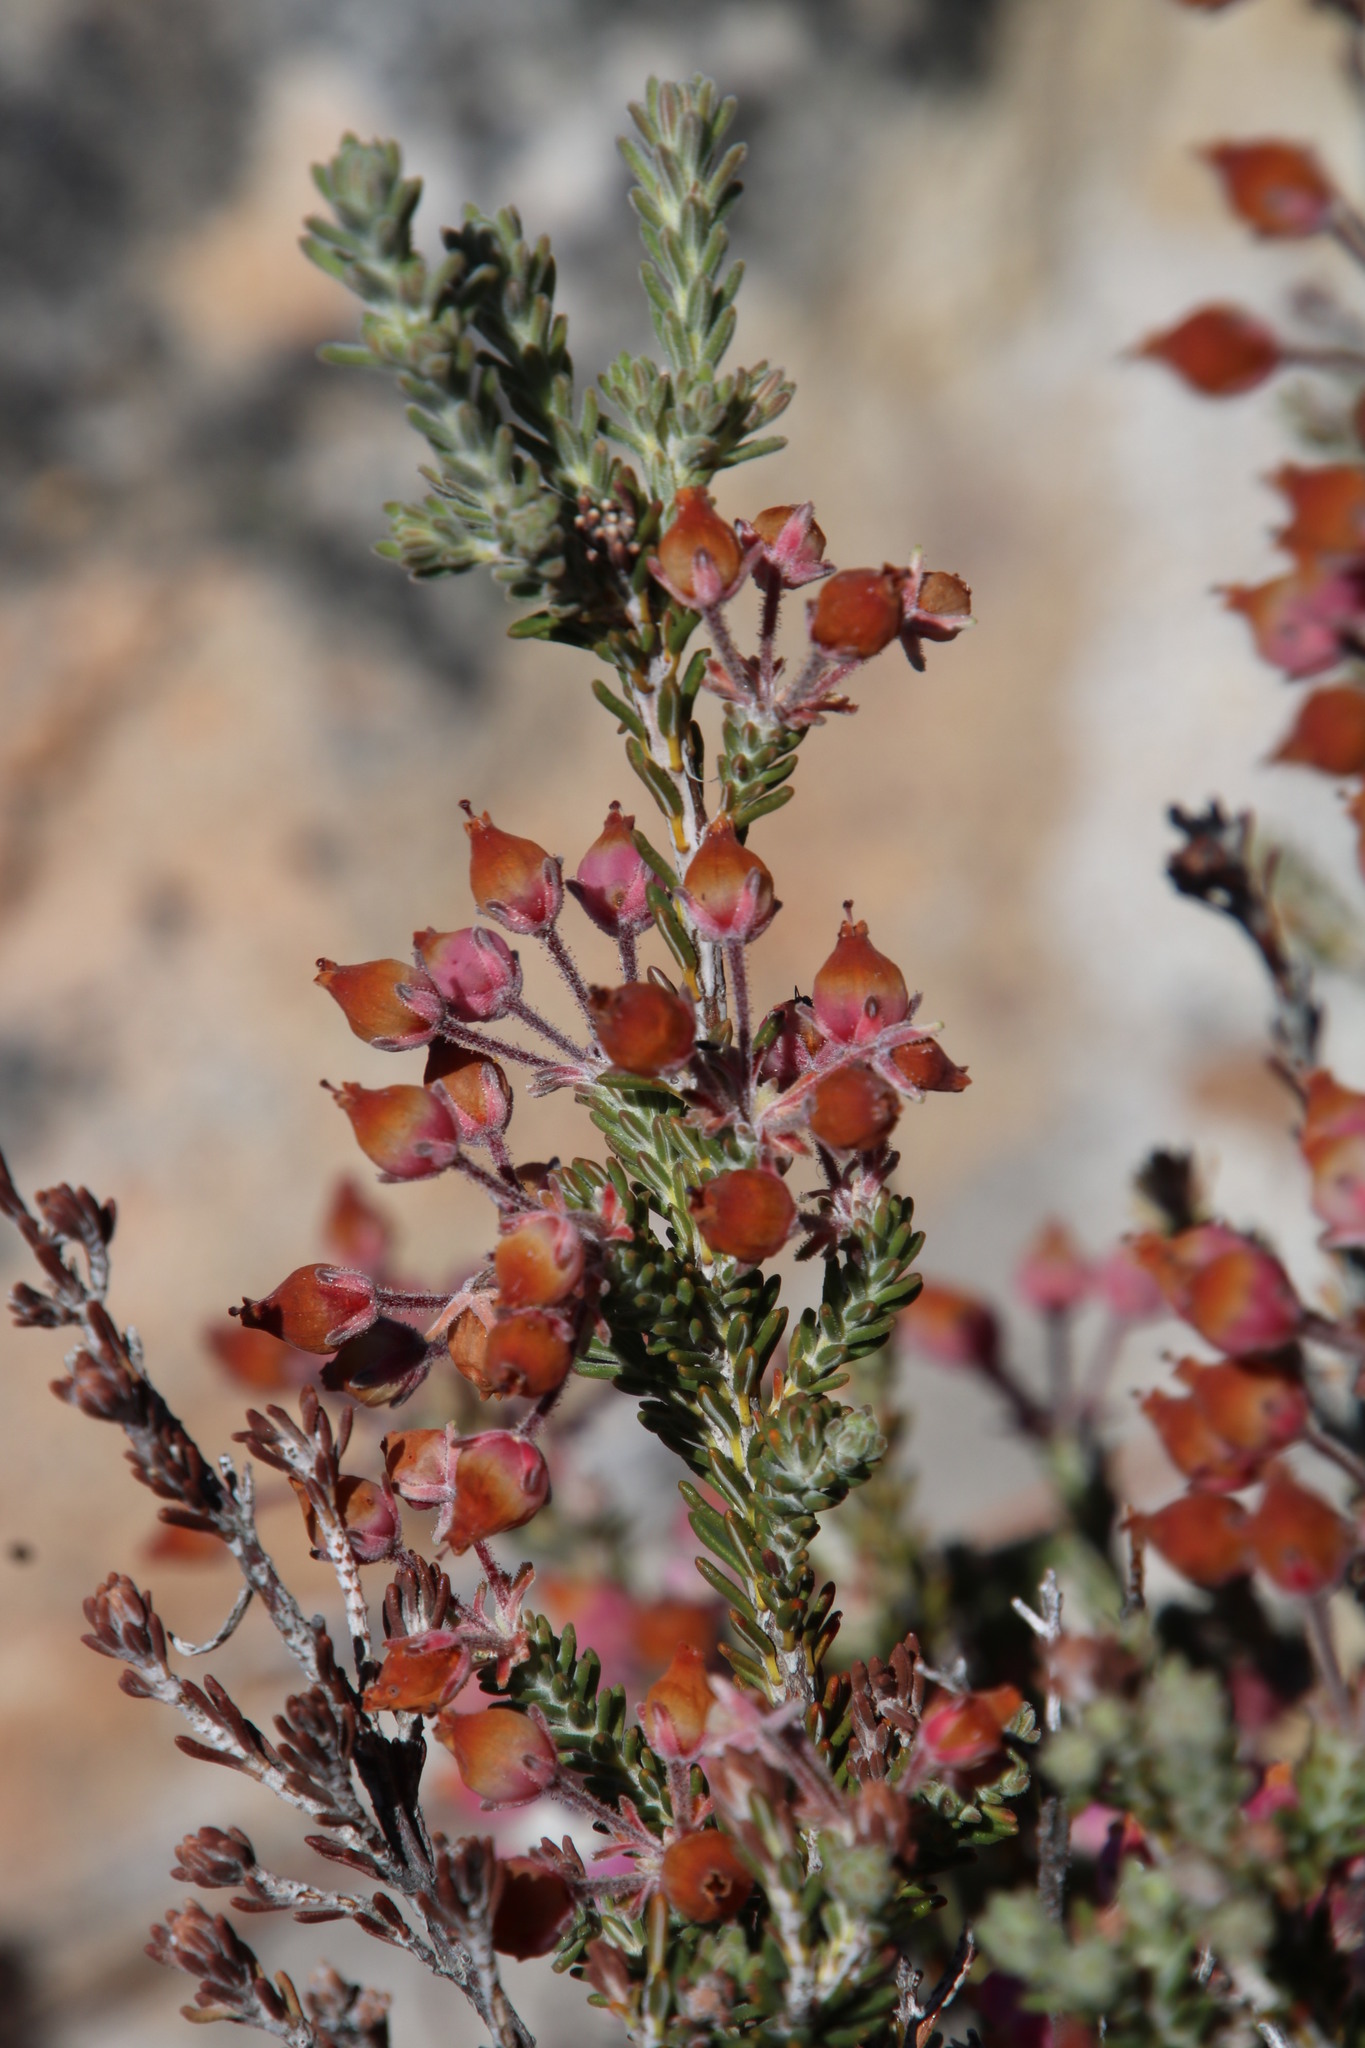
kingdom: Plantae
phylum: Tracheophyta
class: Magnoliopsida
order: Ericales
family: Ericaceae
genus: Erica
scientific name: Erica oresigena
